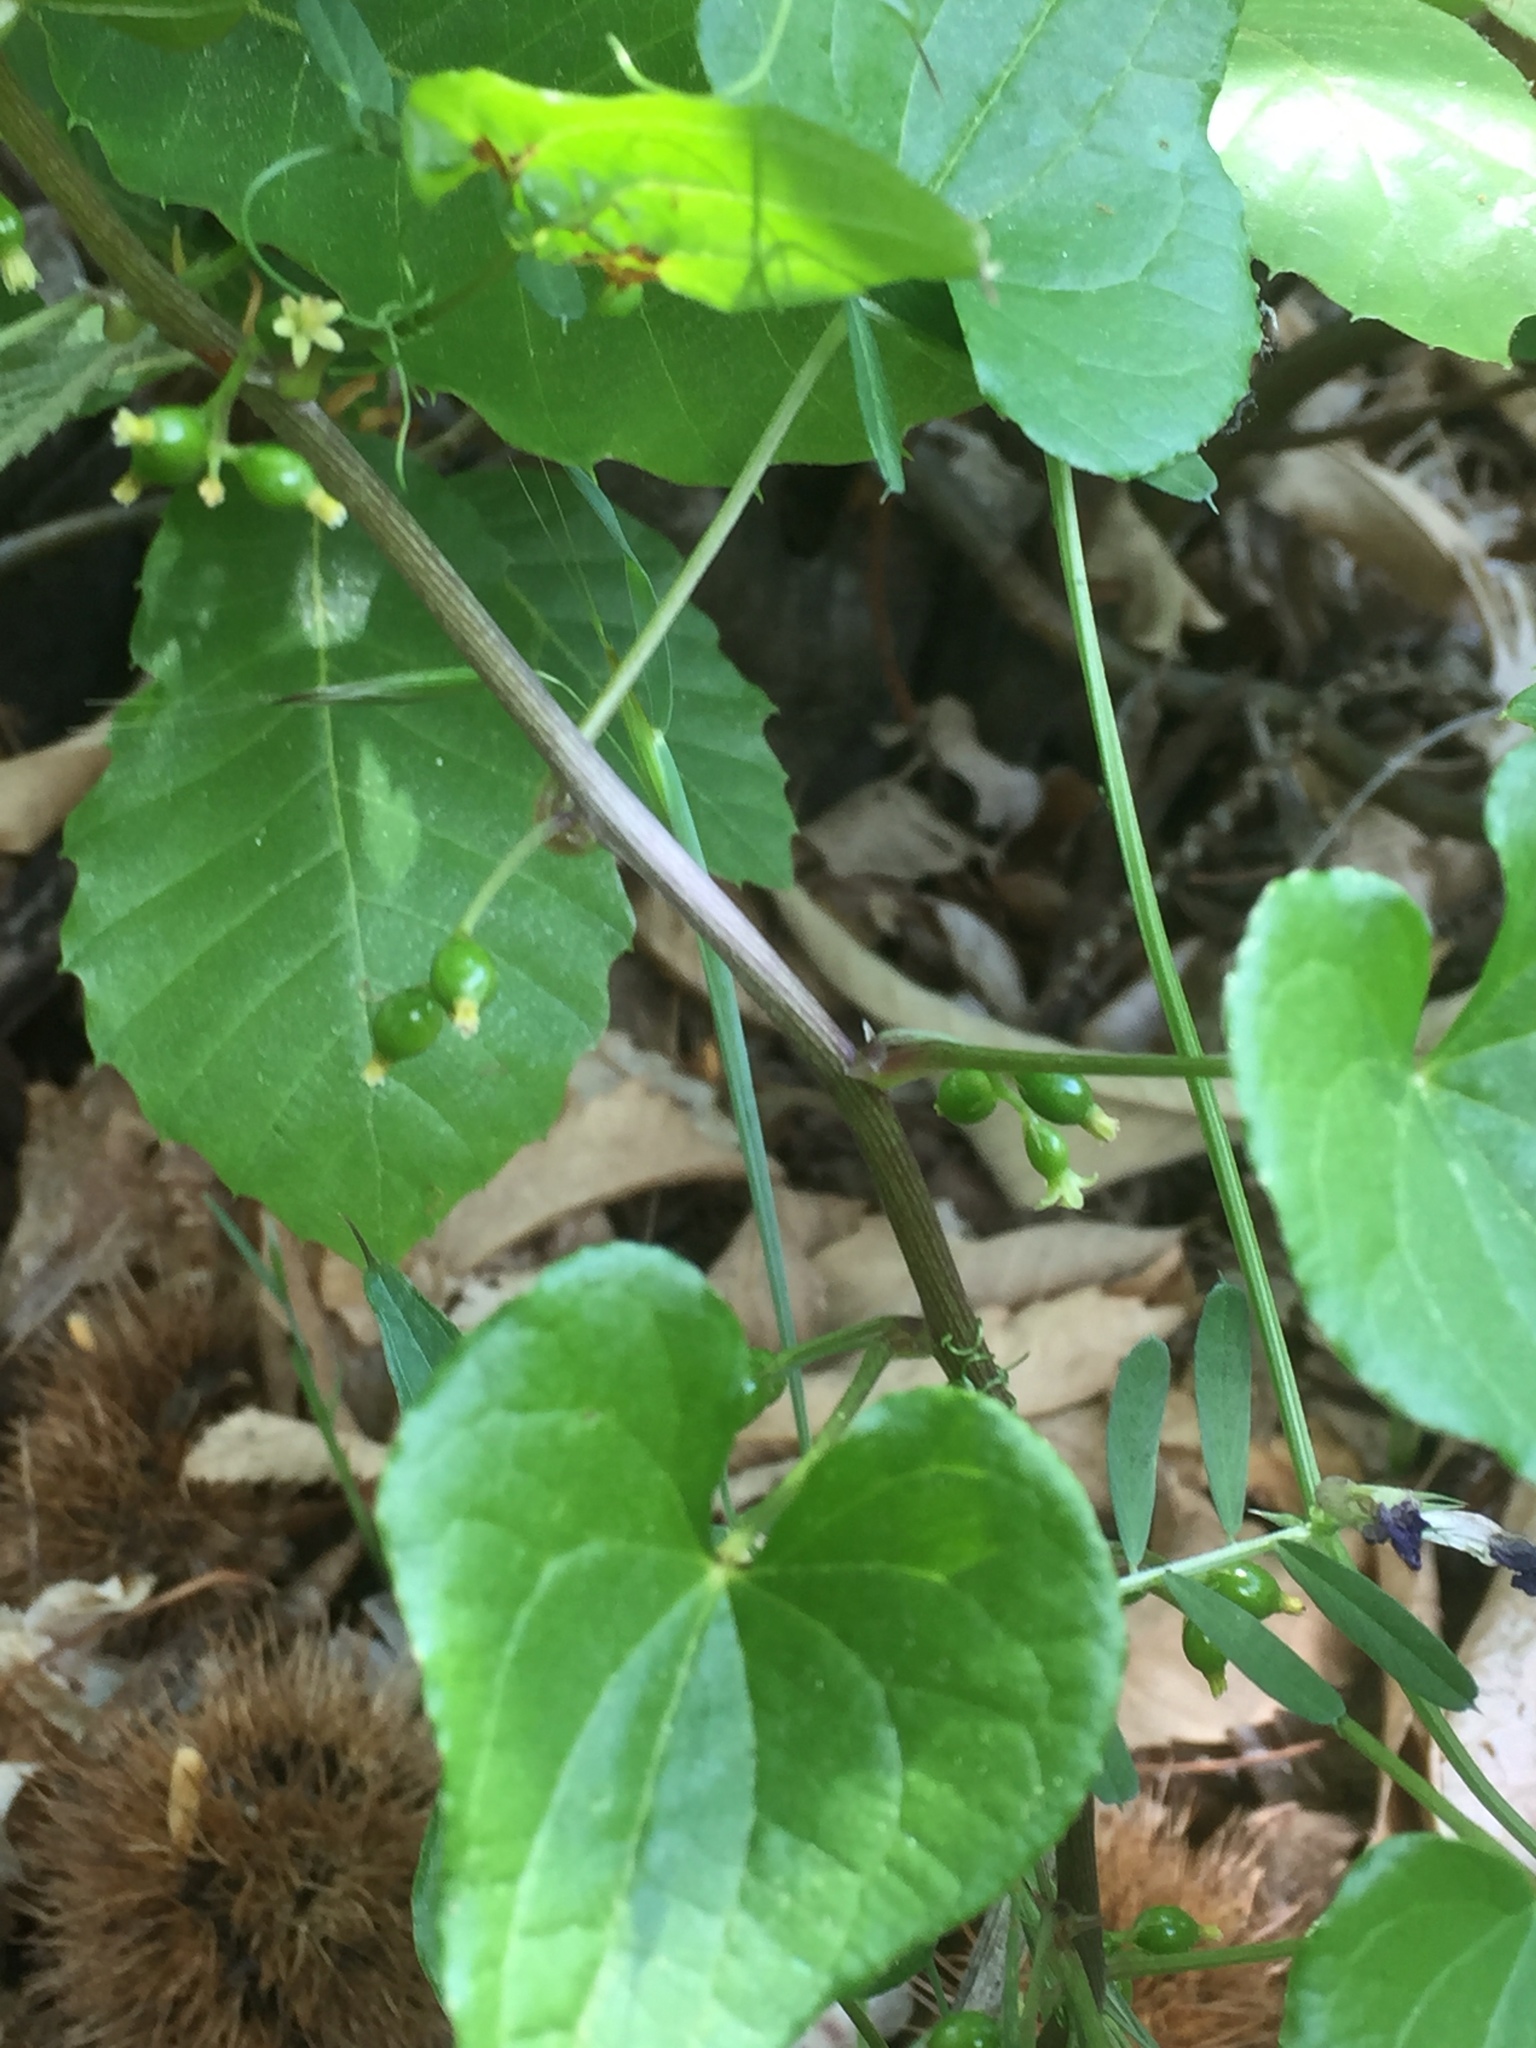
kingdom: Plantae
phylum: Tracheophyta
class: Liliopsida
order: Dioscoreales
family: Dioscoreaceae
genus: Dioscorea
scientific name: Dioscorea communis
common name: Black-bindweed
